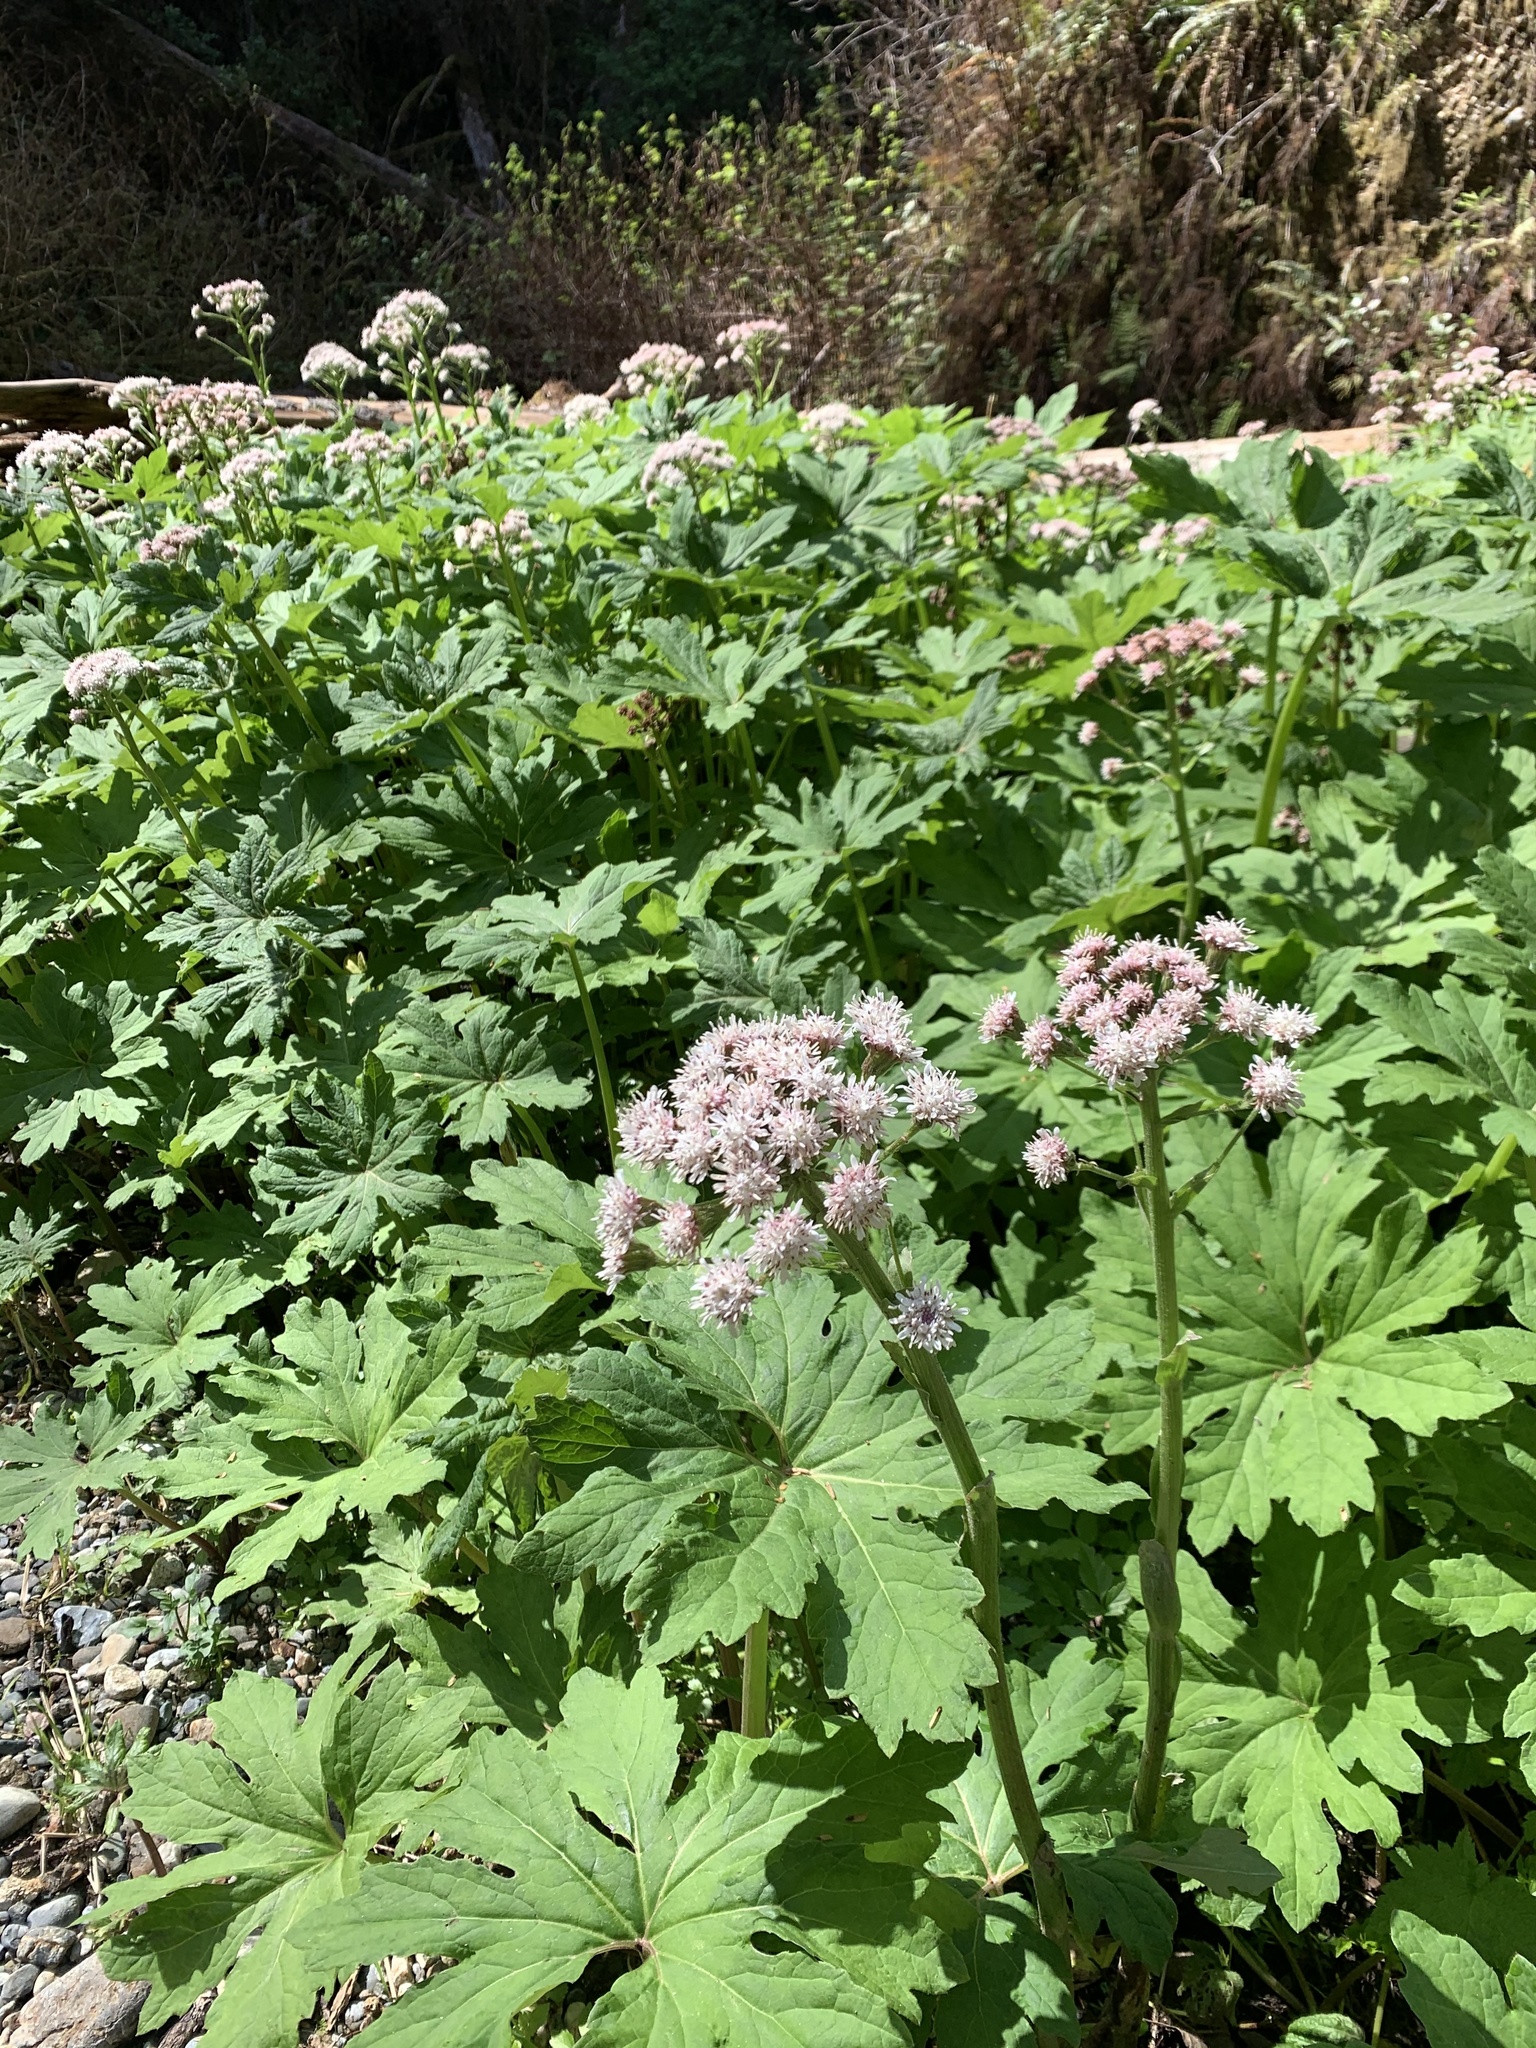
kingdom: Plantae
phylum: Tracheophyta
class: Magnoliopsida
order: Asterales
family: Asteraceae
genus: Petasites
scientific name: Petasites frigidus
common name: Arctic butterbur
